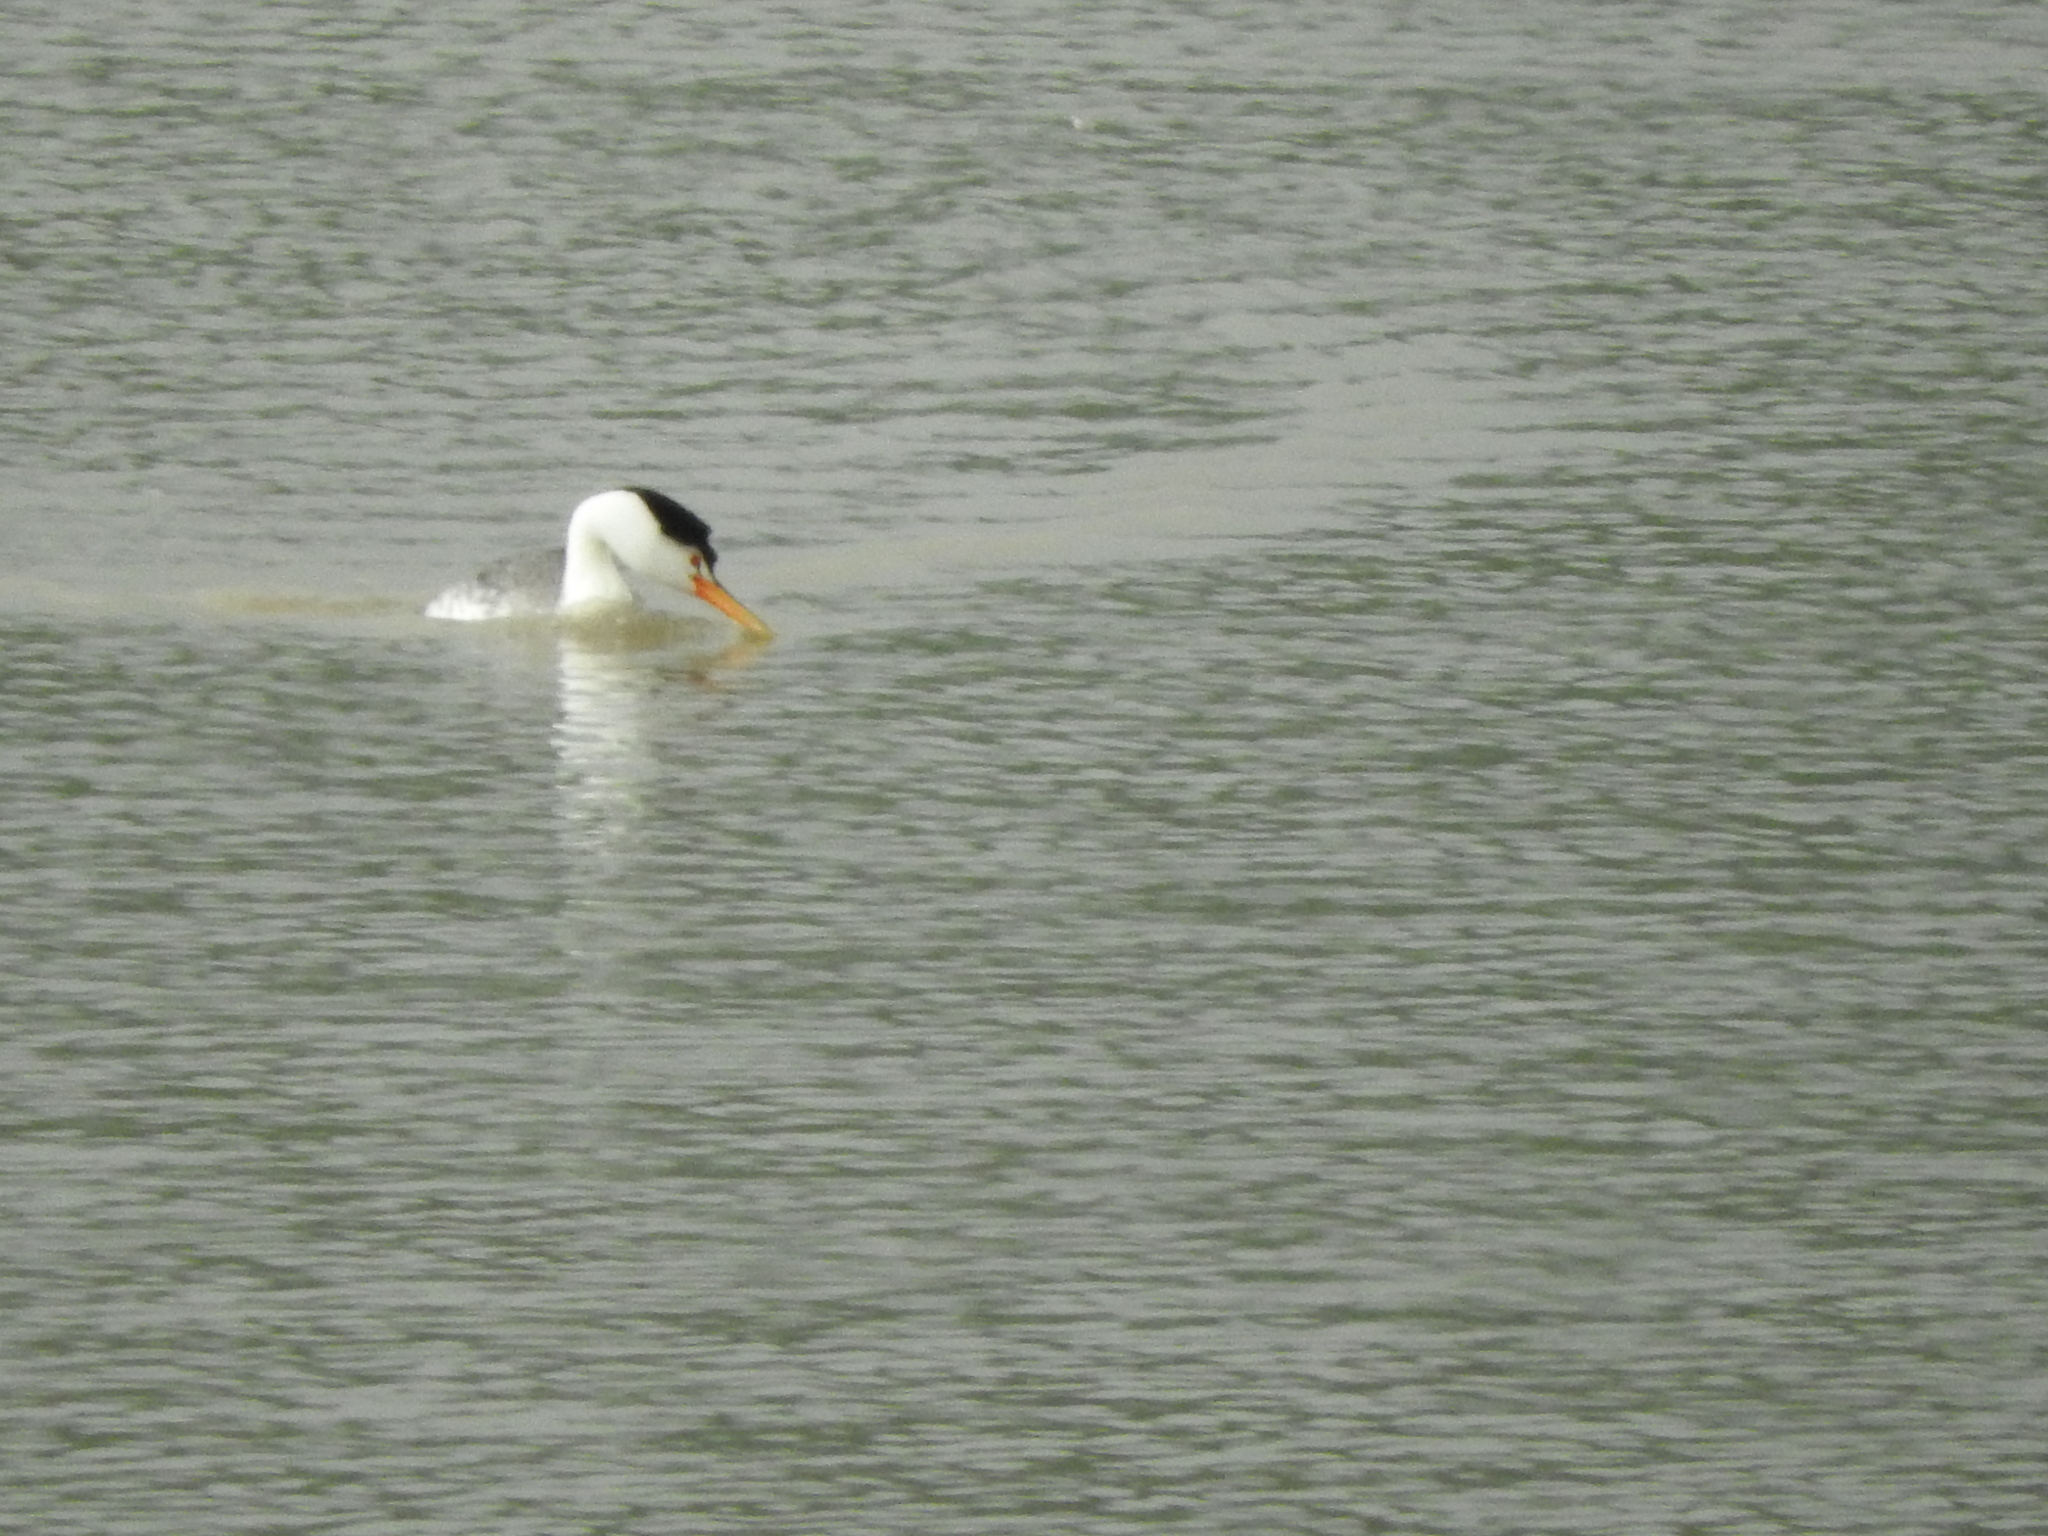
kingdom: Animalia
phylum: Chordata
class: Aves
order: Podicipediformes
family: Podicipedidae
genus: Aechmophorus
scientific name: Aechmophorus clarkii
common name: Clark's grebe
